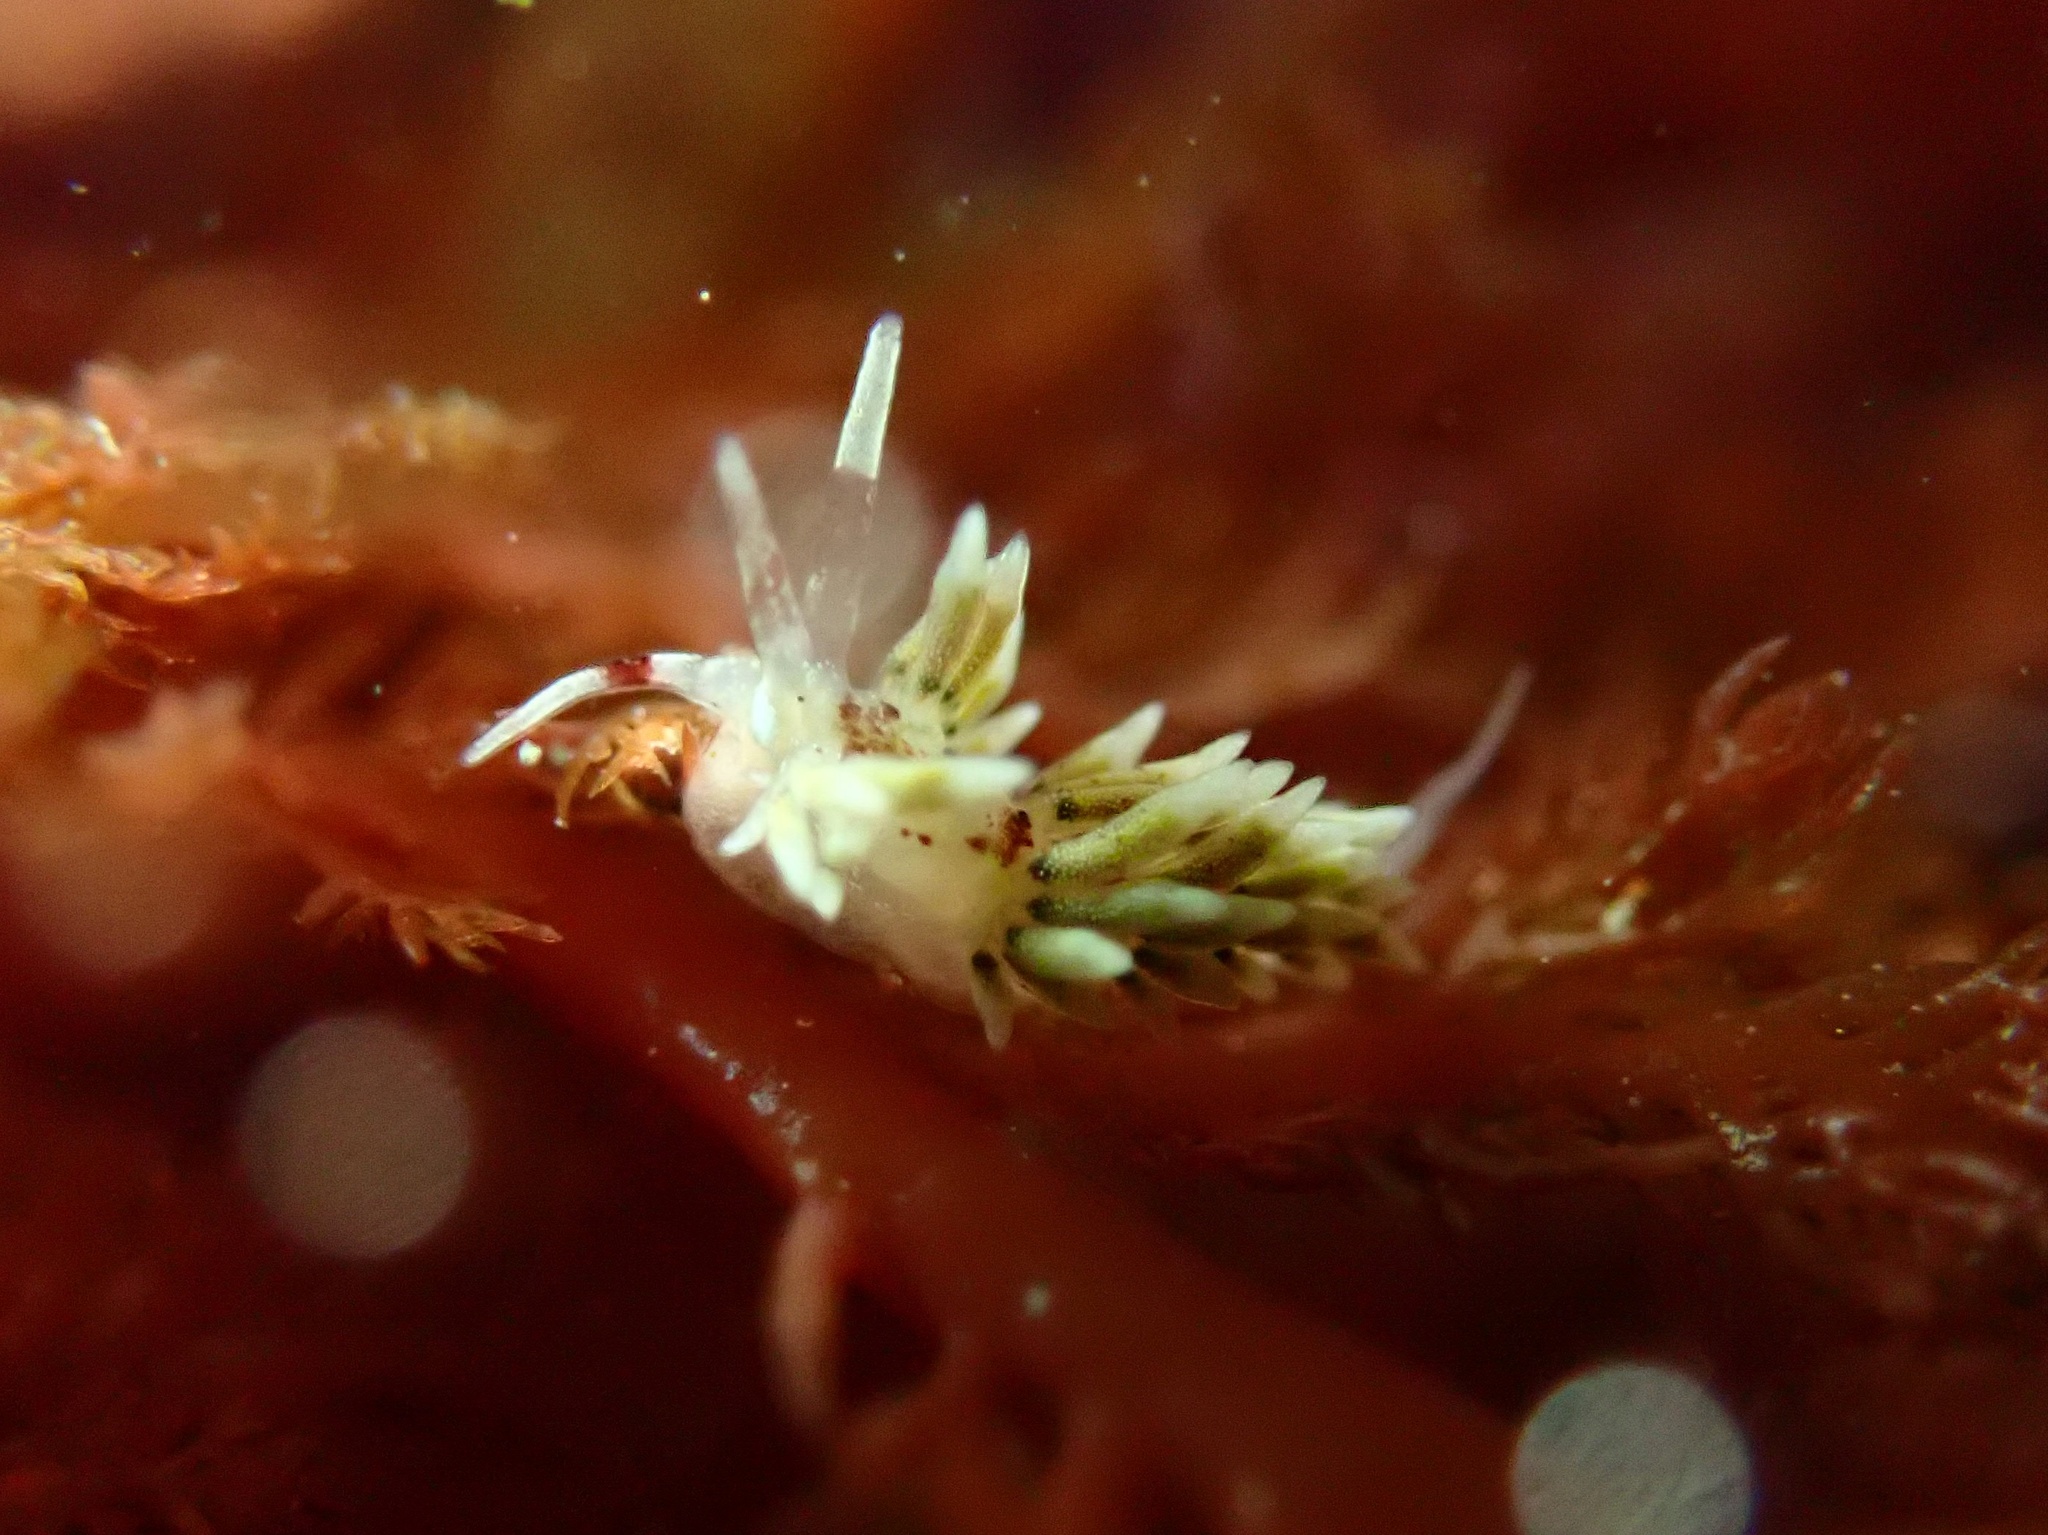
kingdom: Animalia
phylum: Mollusca
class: Gastropoda
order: Nudibranchia
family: Cuthonidae
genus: Cuthona
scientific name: Cuthona hamanni
